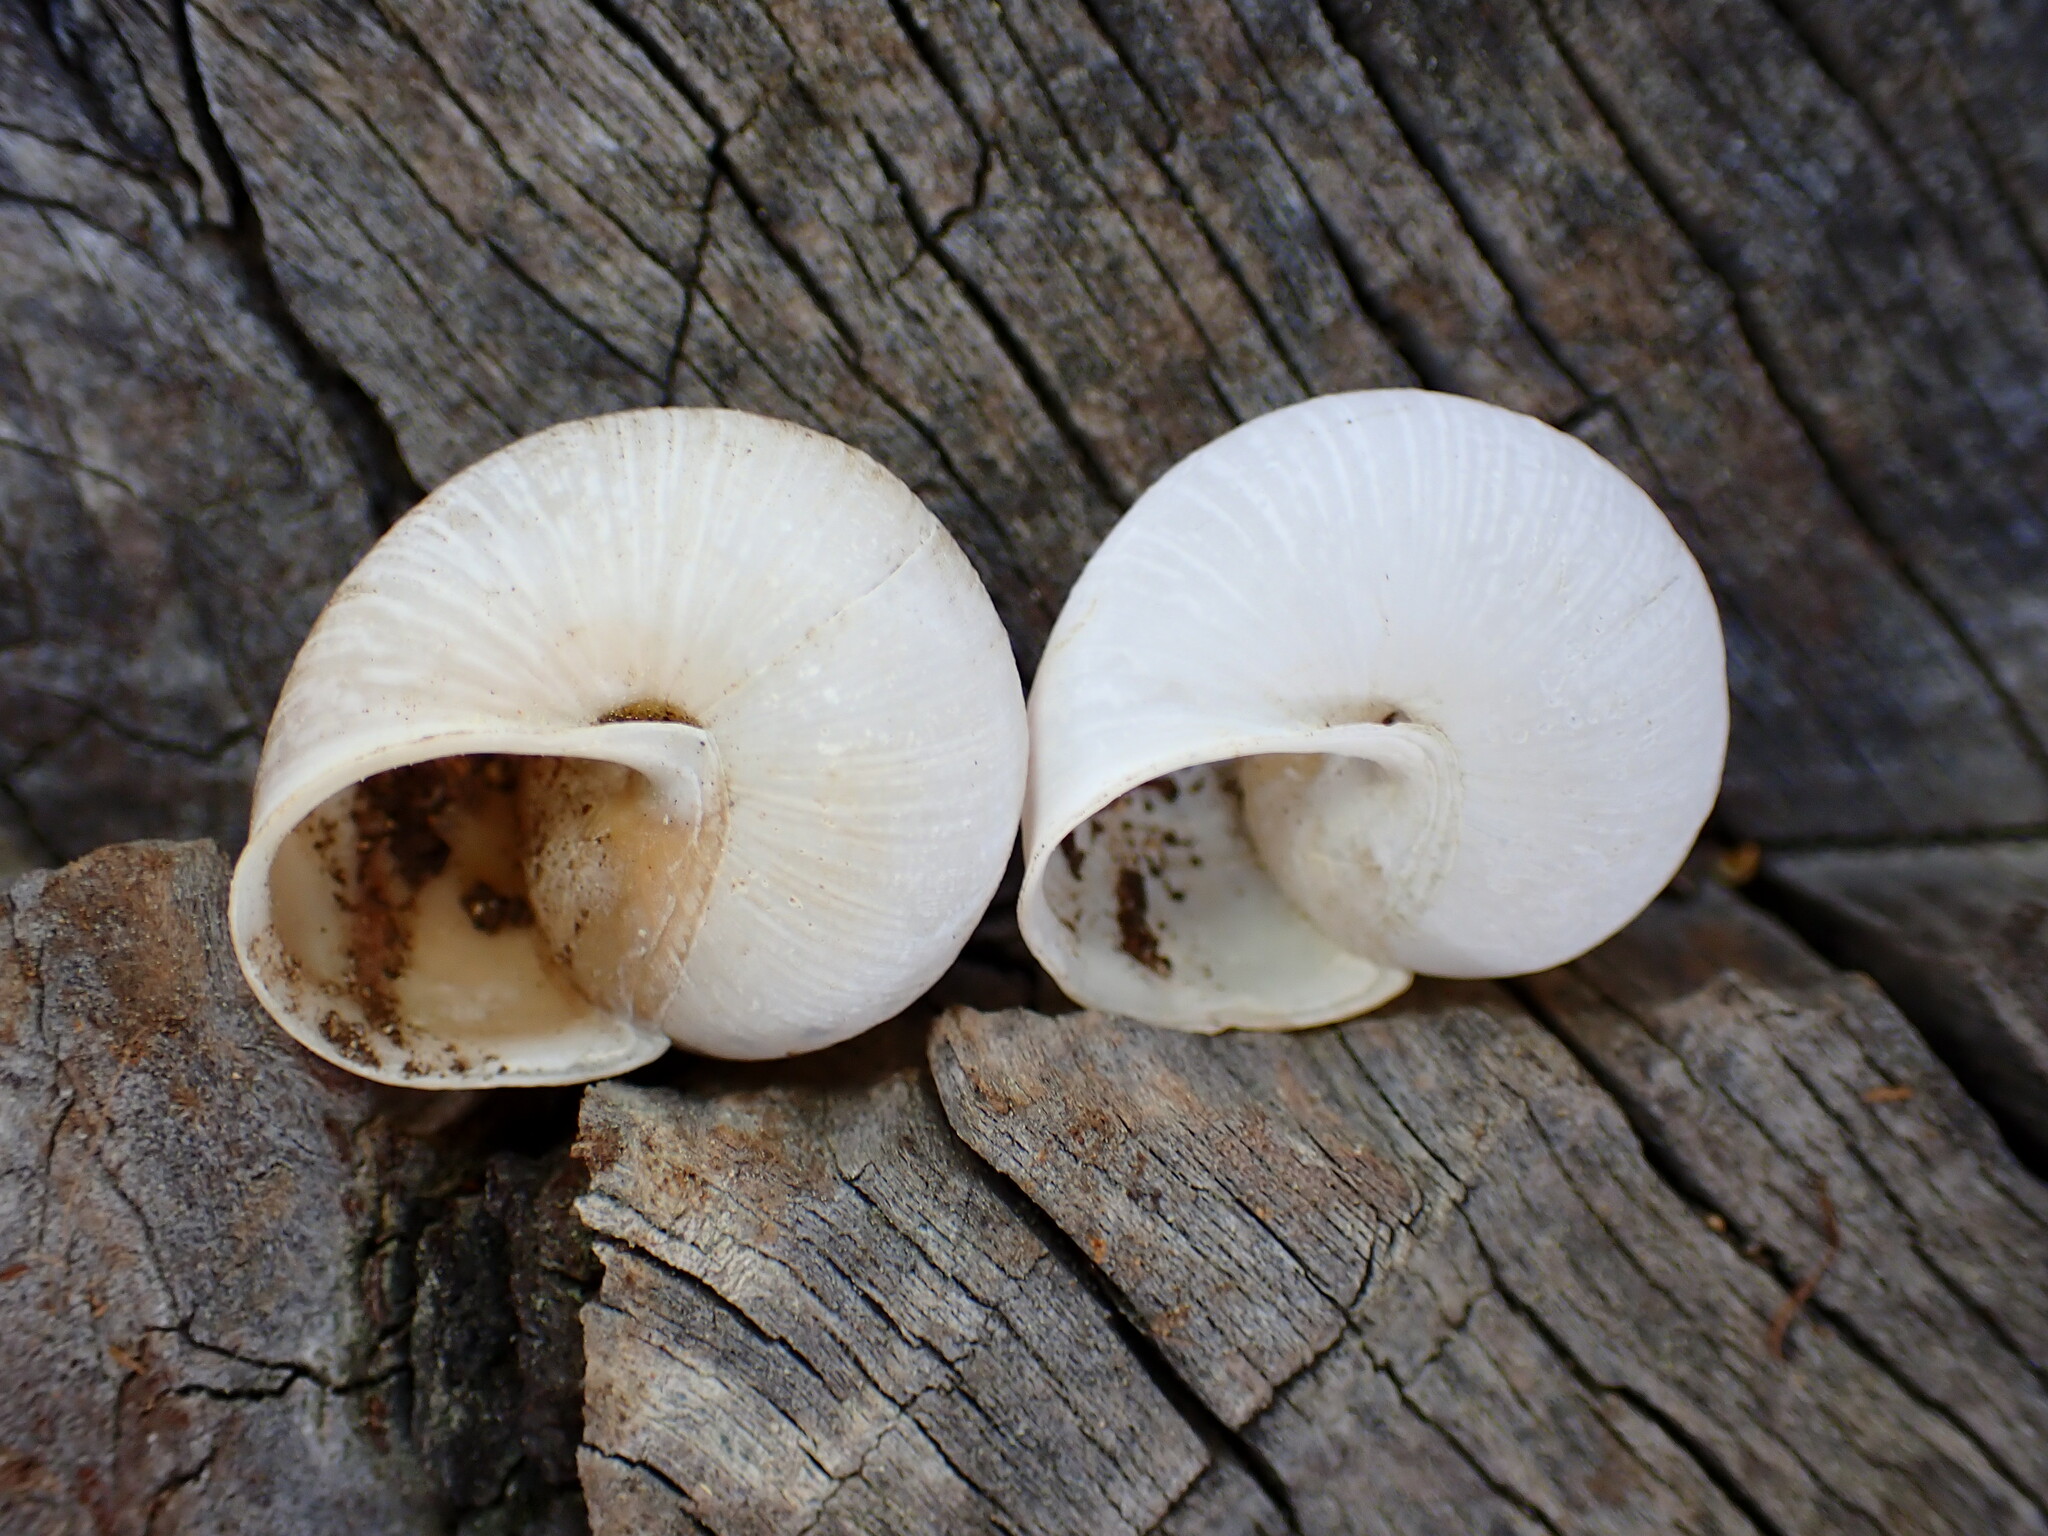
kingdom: Animalia
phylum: Mollusca
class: Gastropoda
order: Stylommatophora
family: Xanthonychidae
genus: Helminthoglypta
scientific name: Helminthoglypta nickliniana
